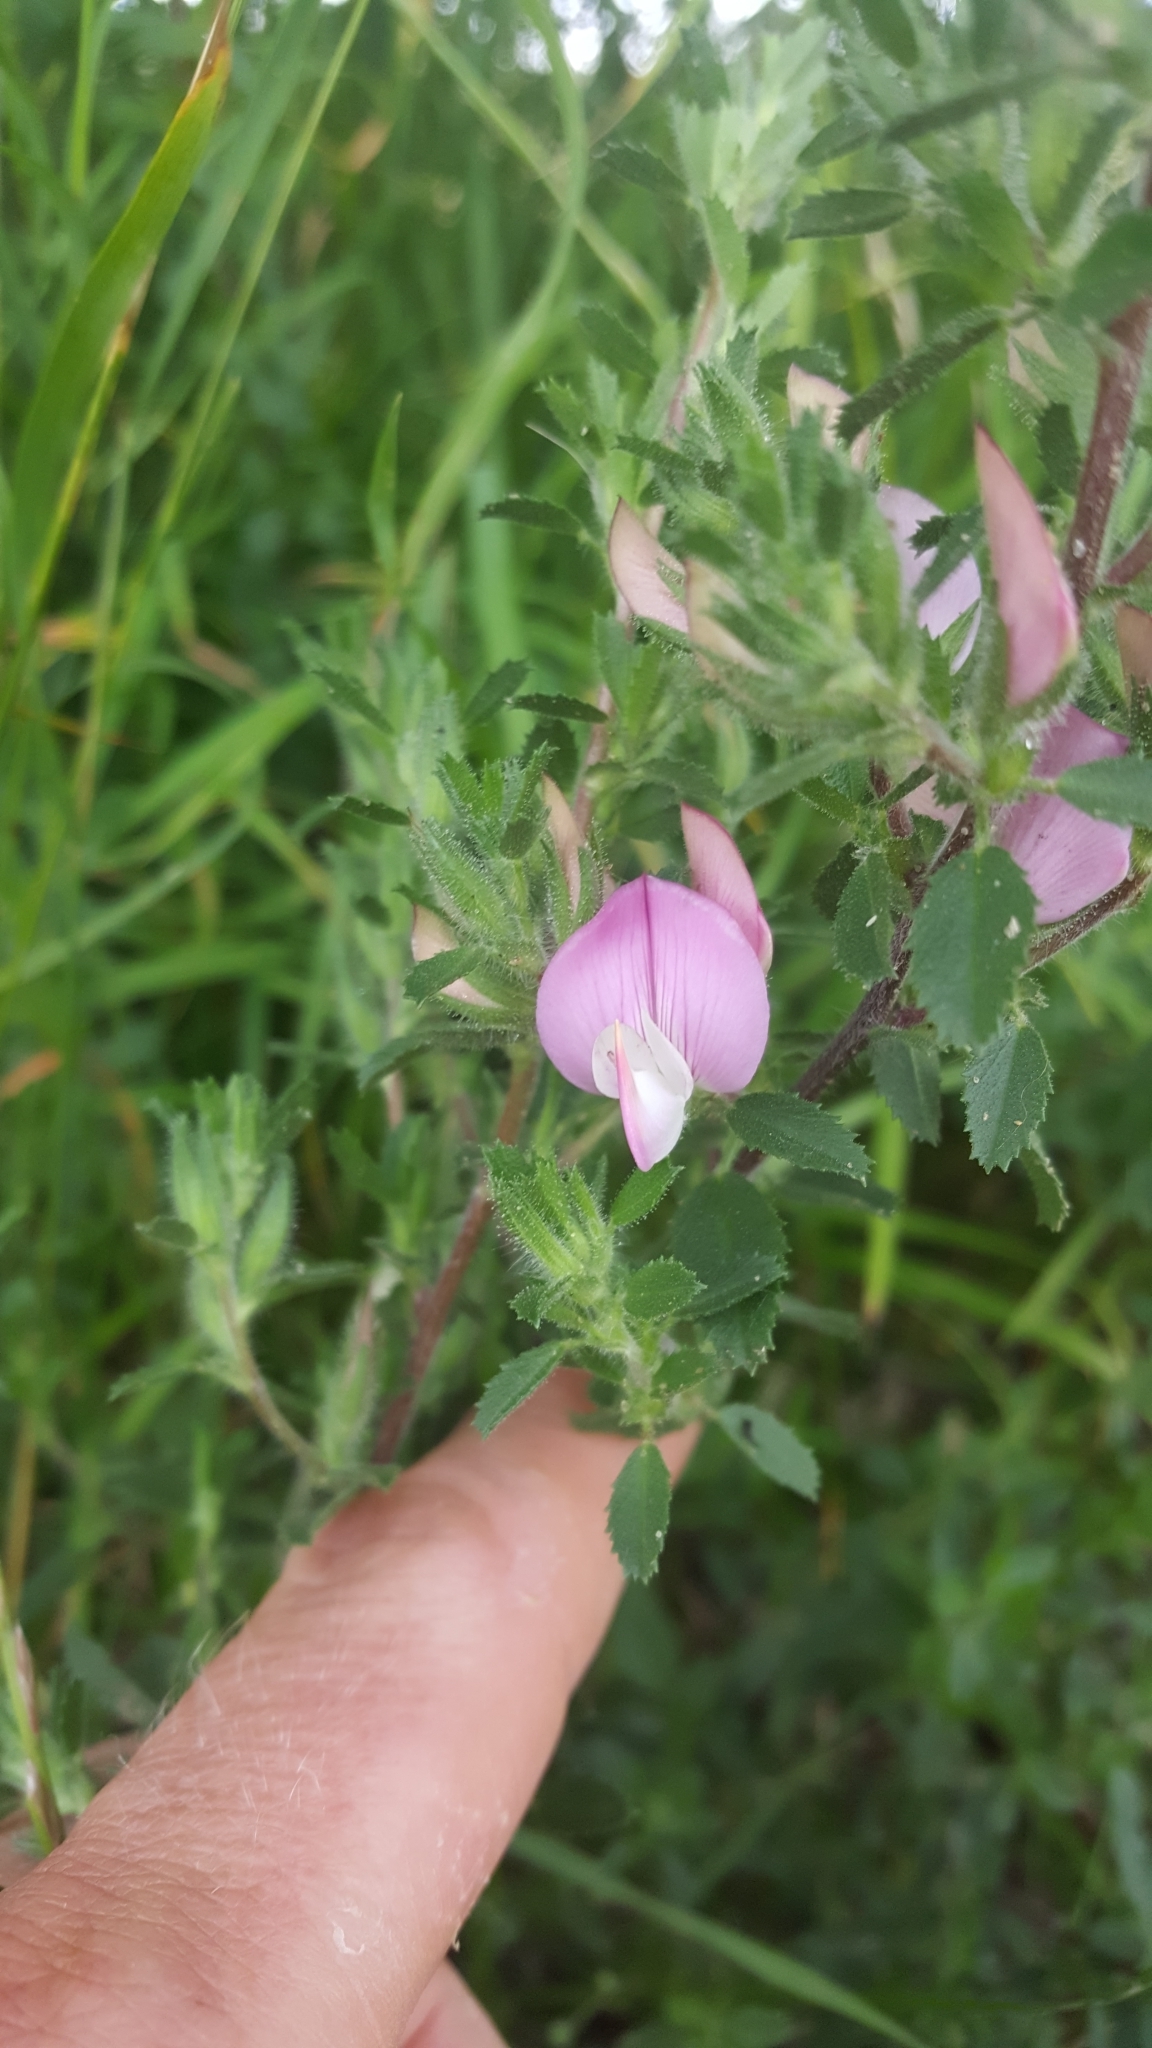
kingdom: Plantae
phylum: Tracheophyta
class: Magnoliopsida
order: Fabales
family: Fabaceae
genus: Ononis
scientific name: Ononis spinosa
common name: Spiny restharrow
